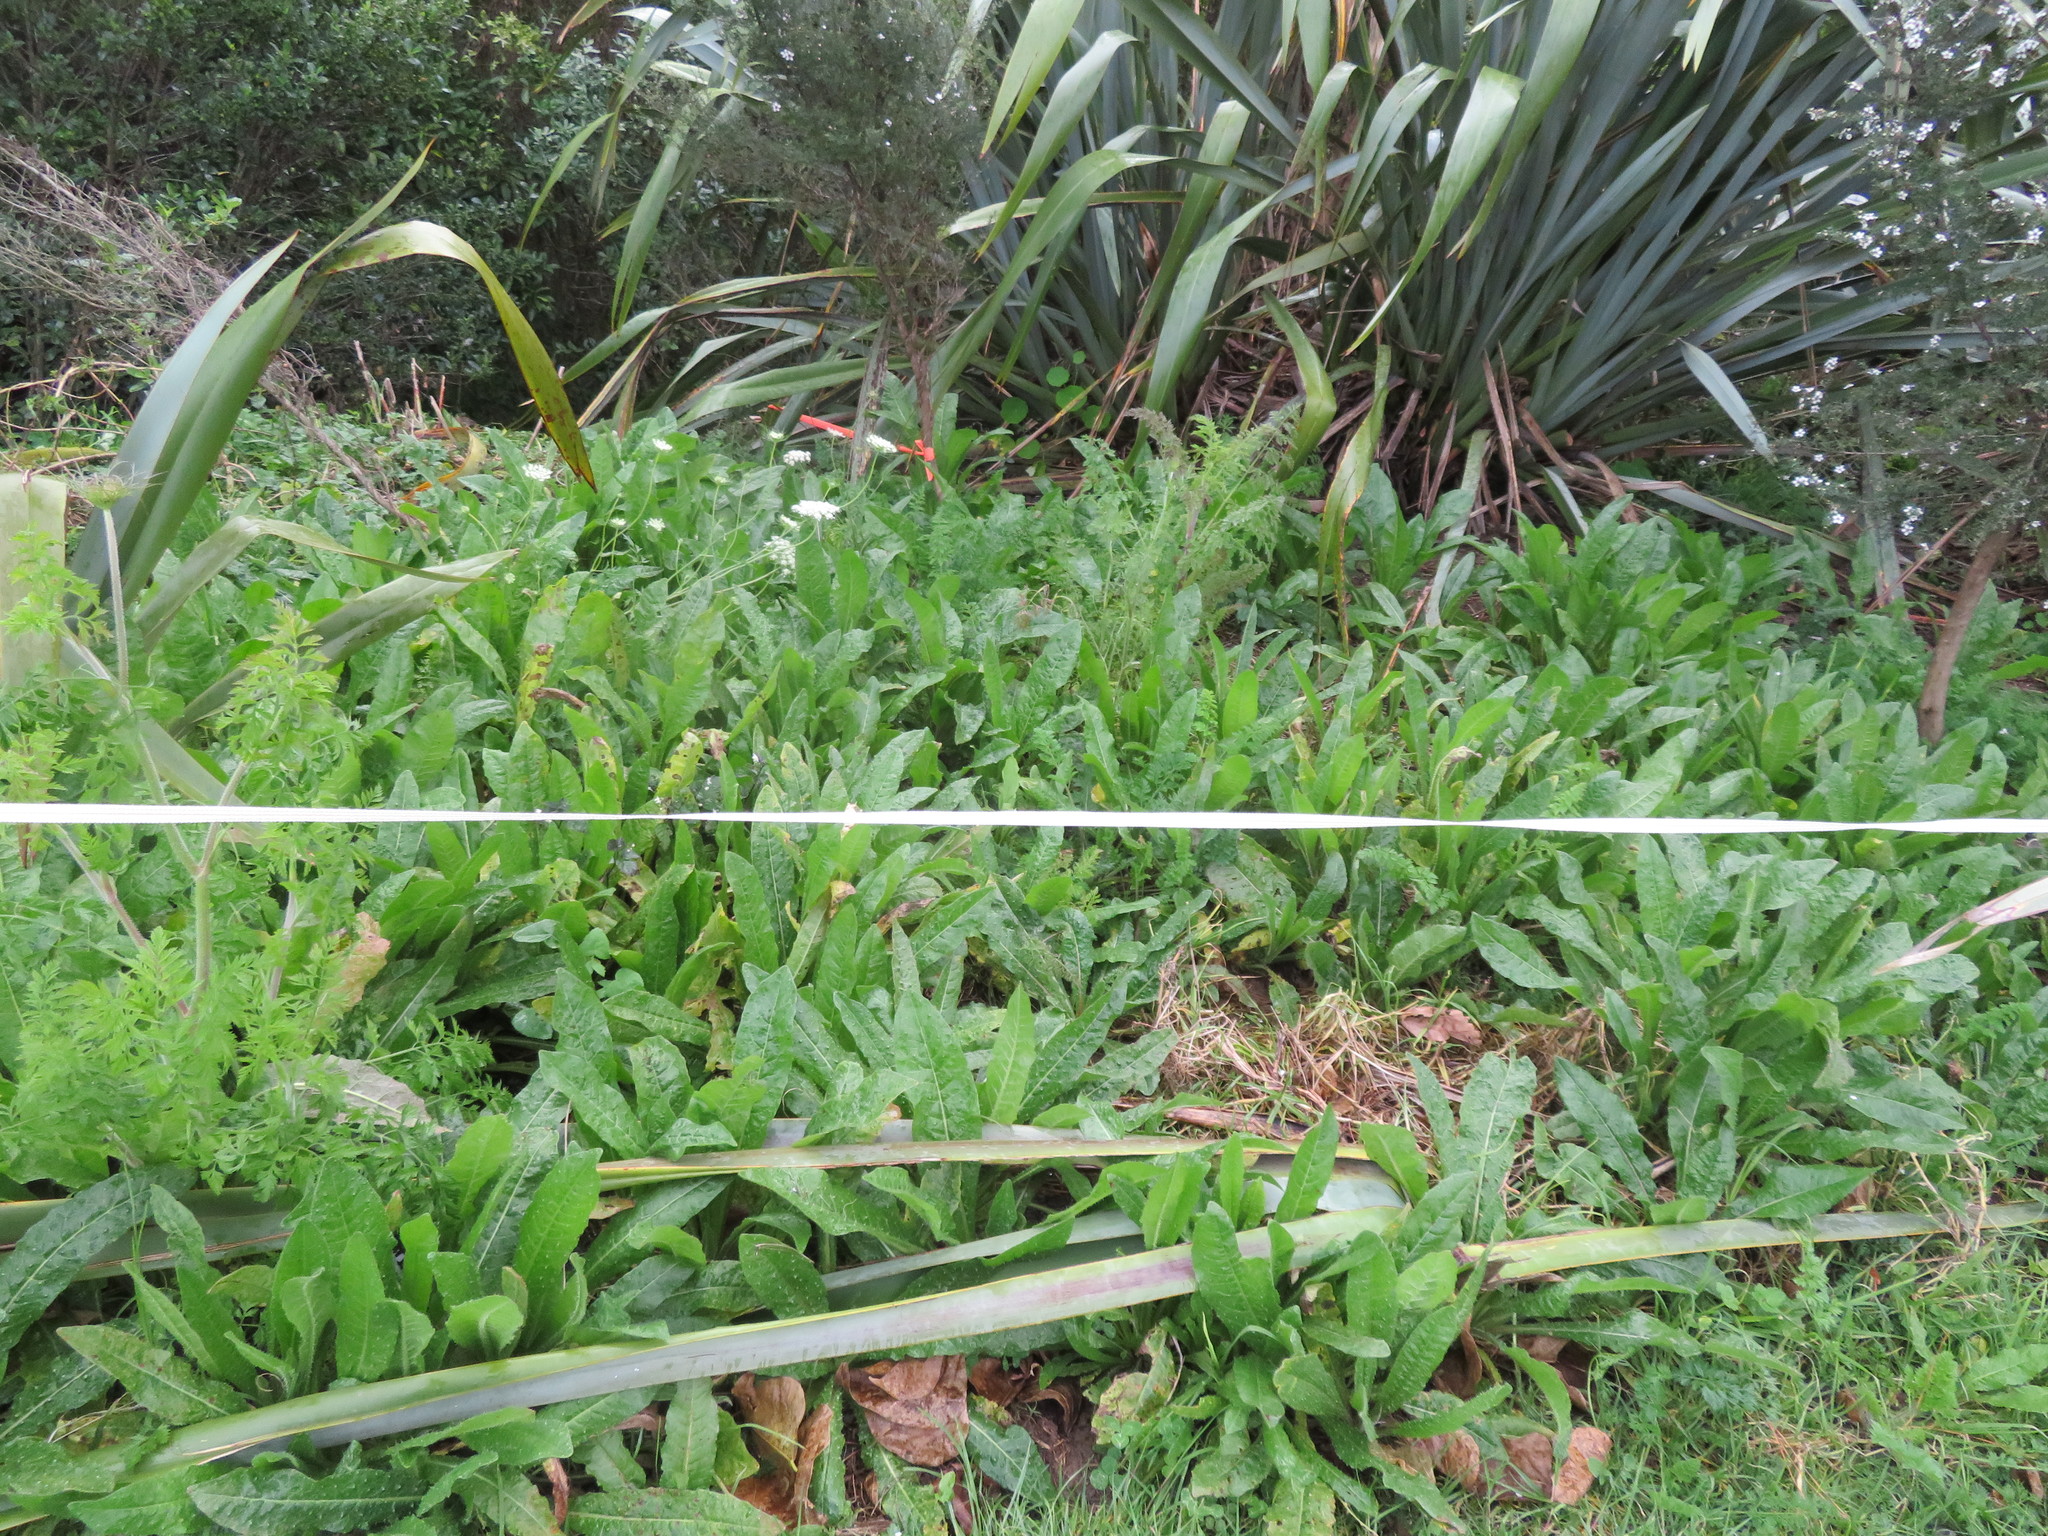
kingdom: Plantae
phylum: Tracheophyta
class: Magnoliopsida
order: Asterales
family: Asteraceae
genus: Helminthotheca
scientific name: Helminthotheca echioides
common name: Ox-tongue
